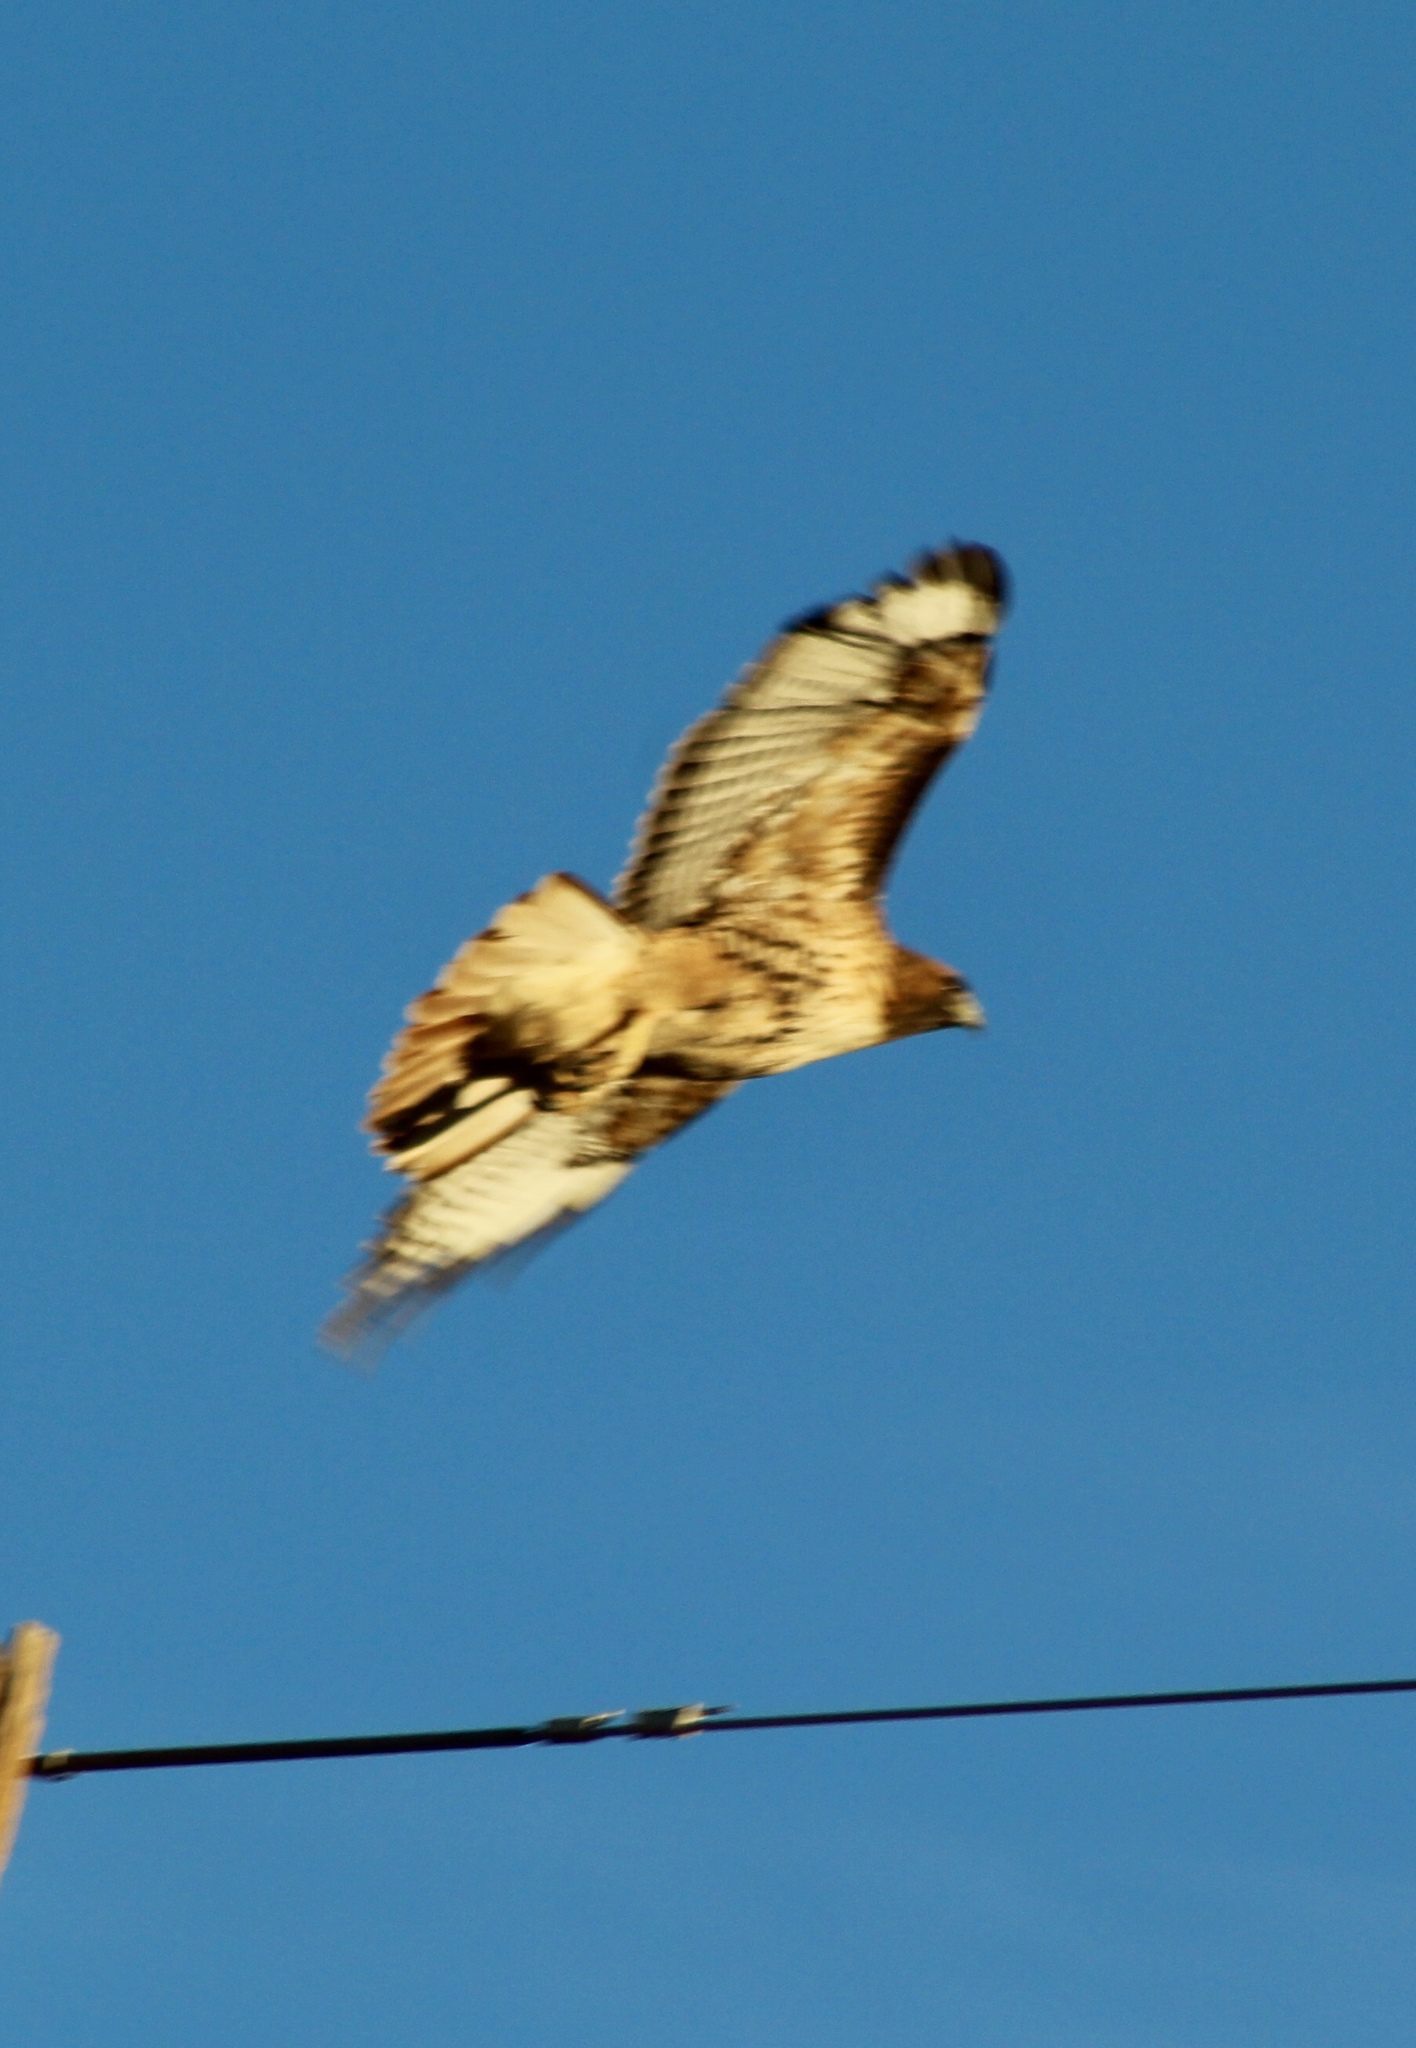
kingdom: Animalia
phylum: Chordata
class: Aves
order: Accipitriformes
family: Accipitridae
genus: Buteo
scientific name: Buteo jamaicensis
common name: Red-tailed hawk
